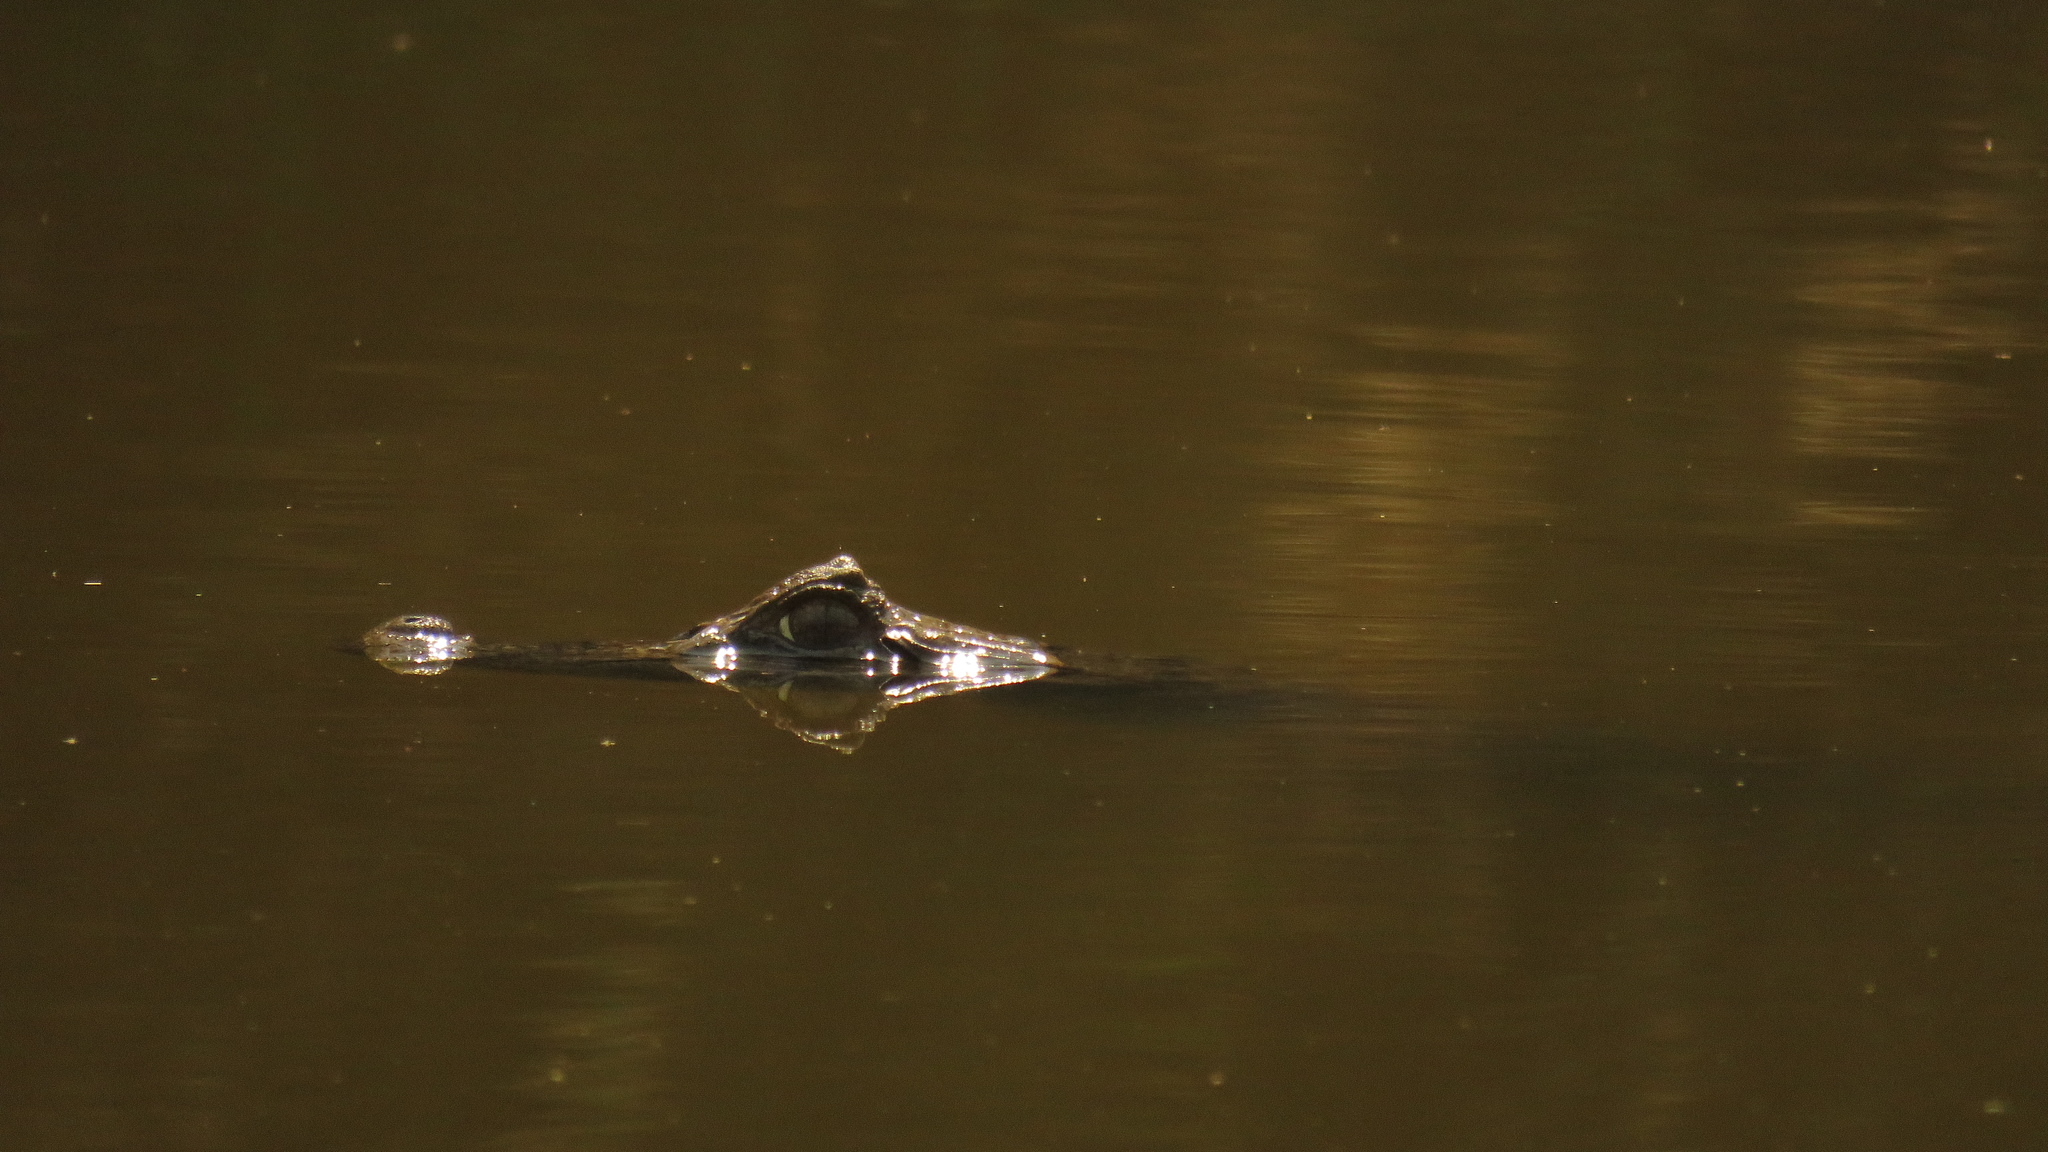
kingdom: Animalia
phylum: Chordata
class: Crocodylia
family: Alligatoridae
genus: Caiman
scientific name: Caiman latirostris
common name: Broad-snouted caiman
